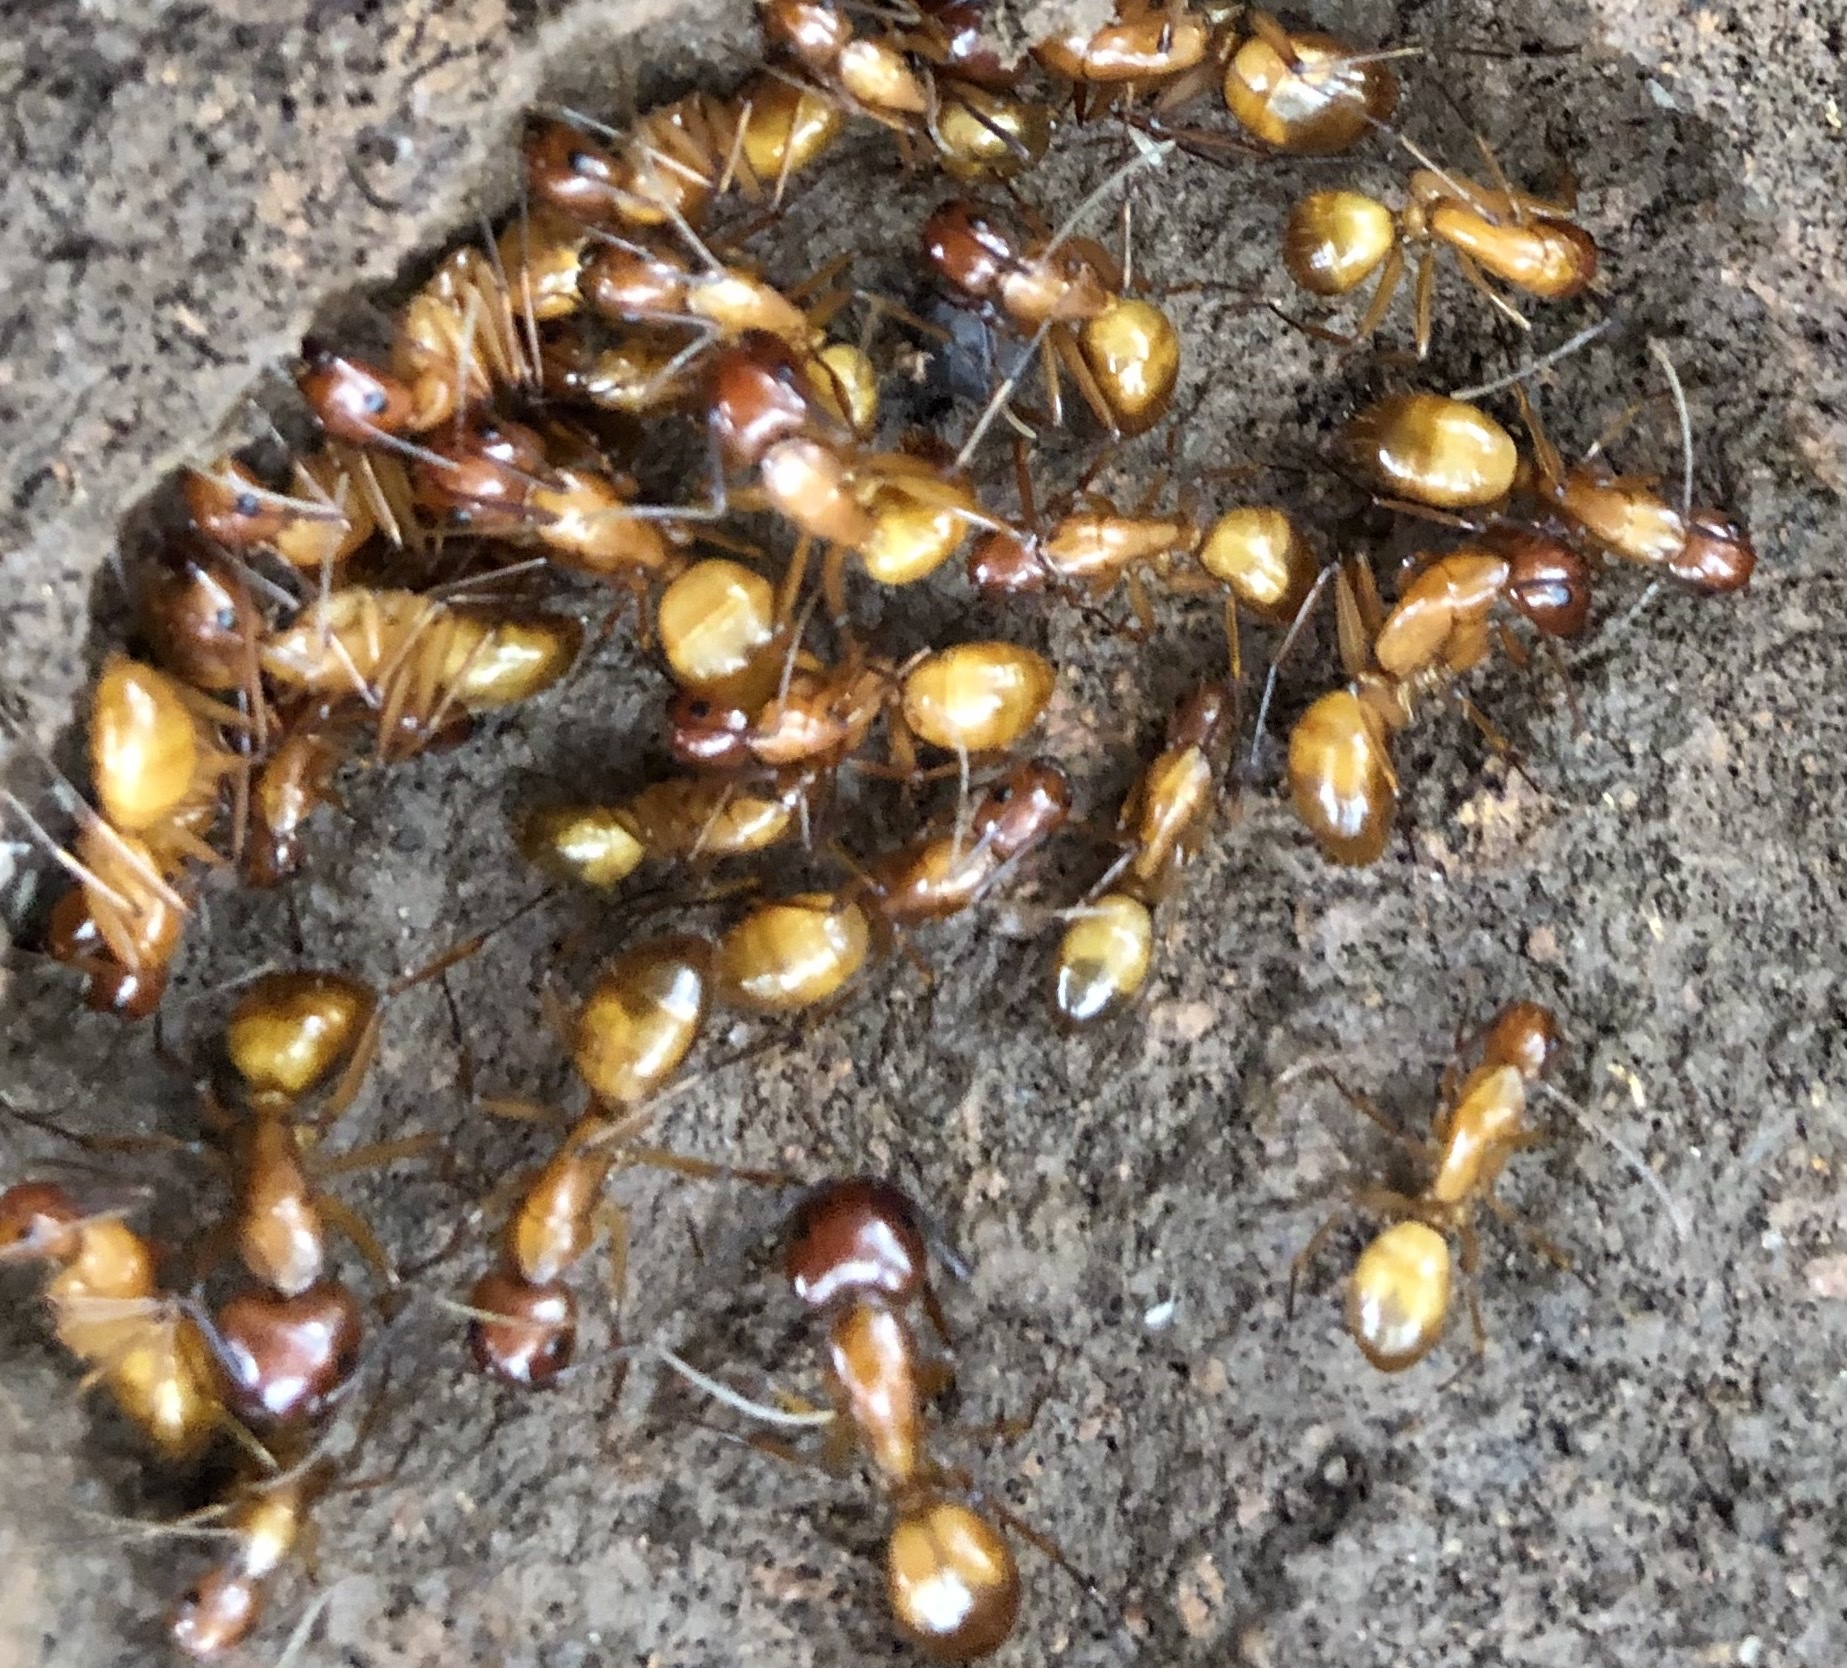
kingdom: Animalia
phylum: Arthropoda
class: Insecta
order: Hymenoptera
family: Formicidae
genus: Camponotus
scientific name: Camponotus castaneus
